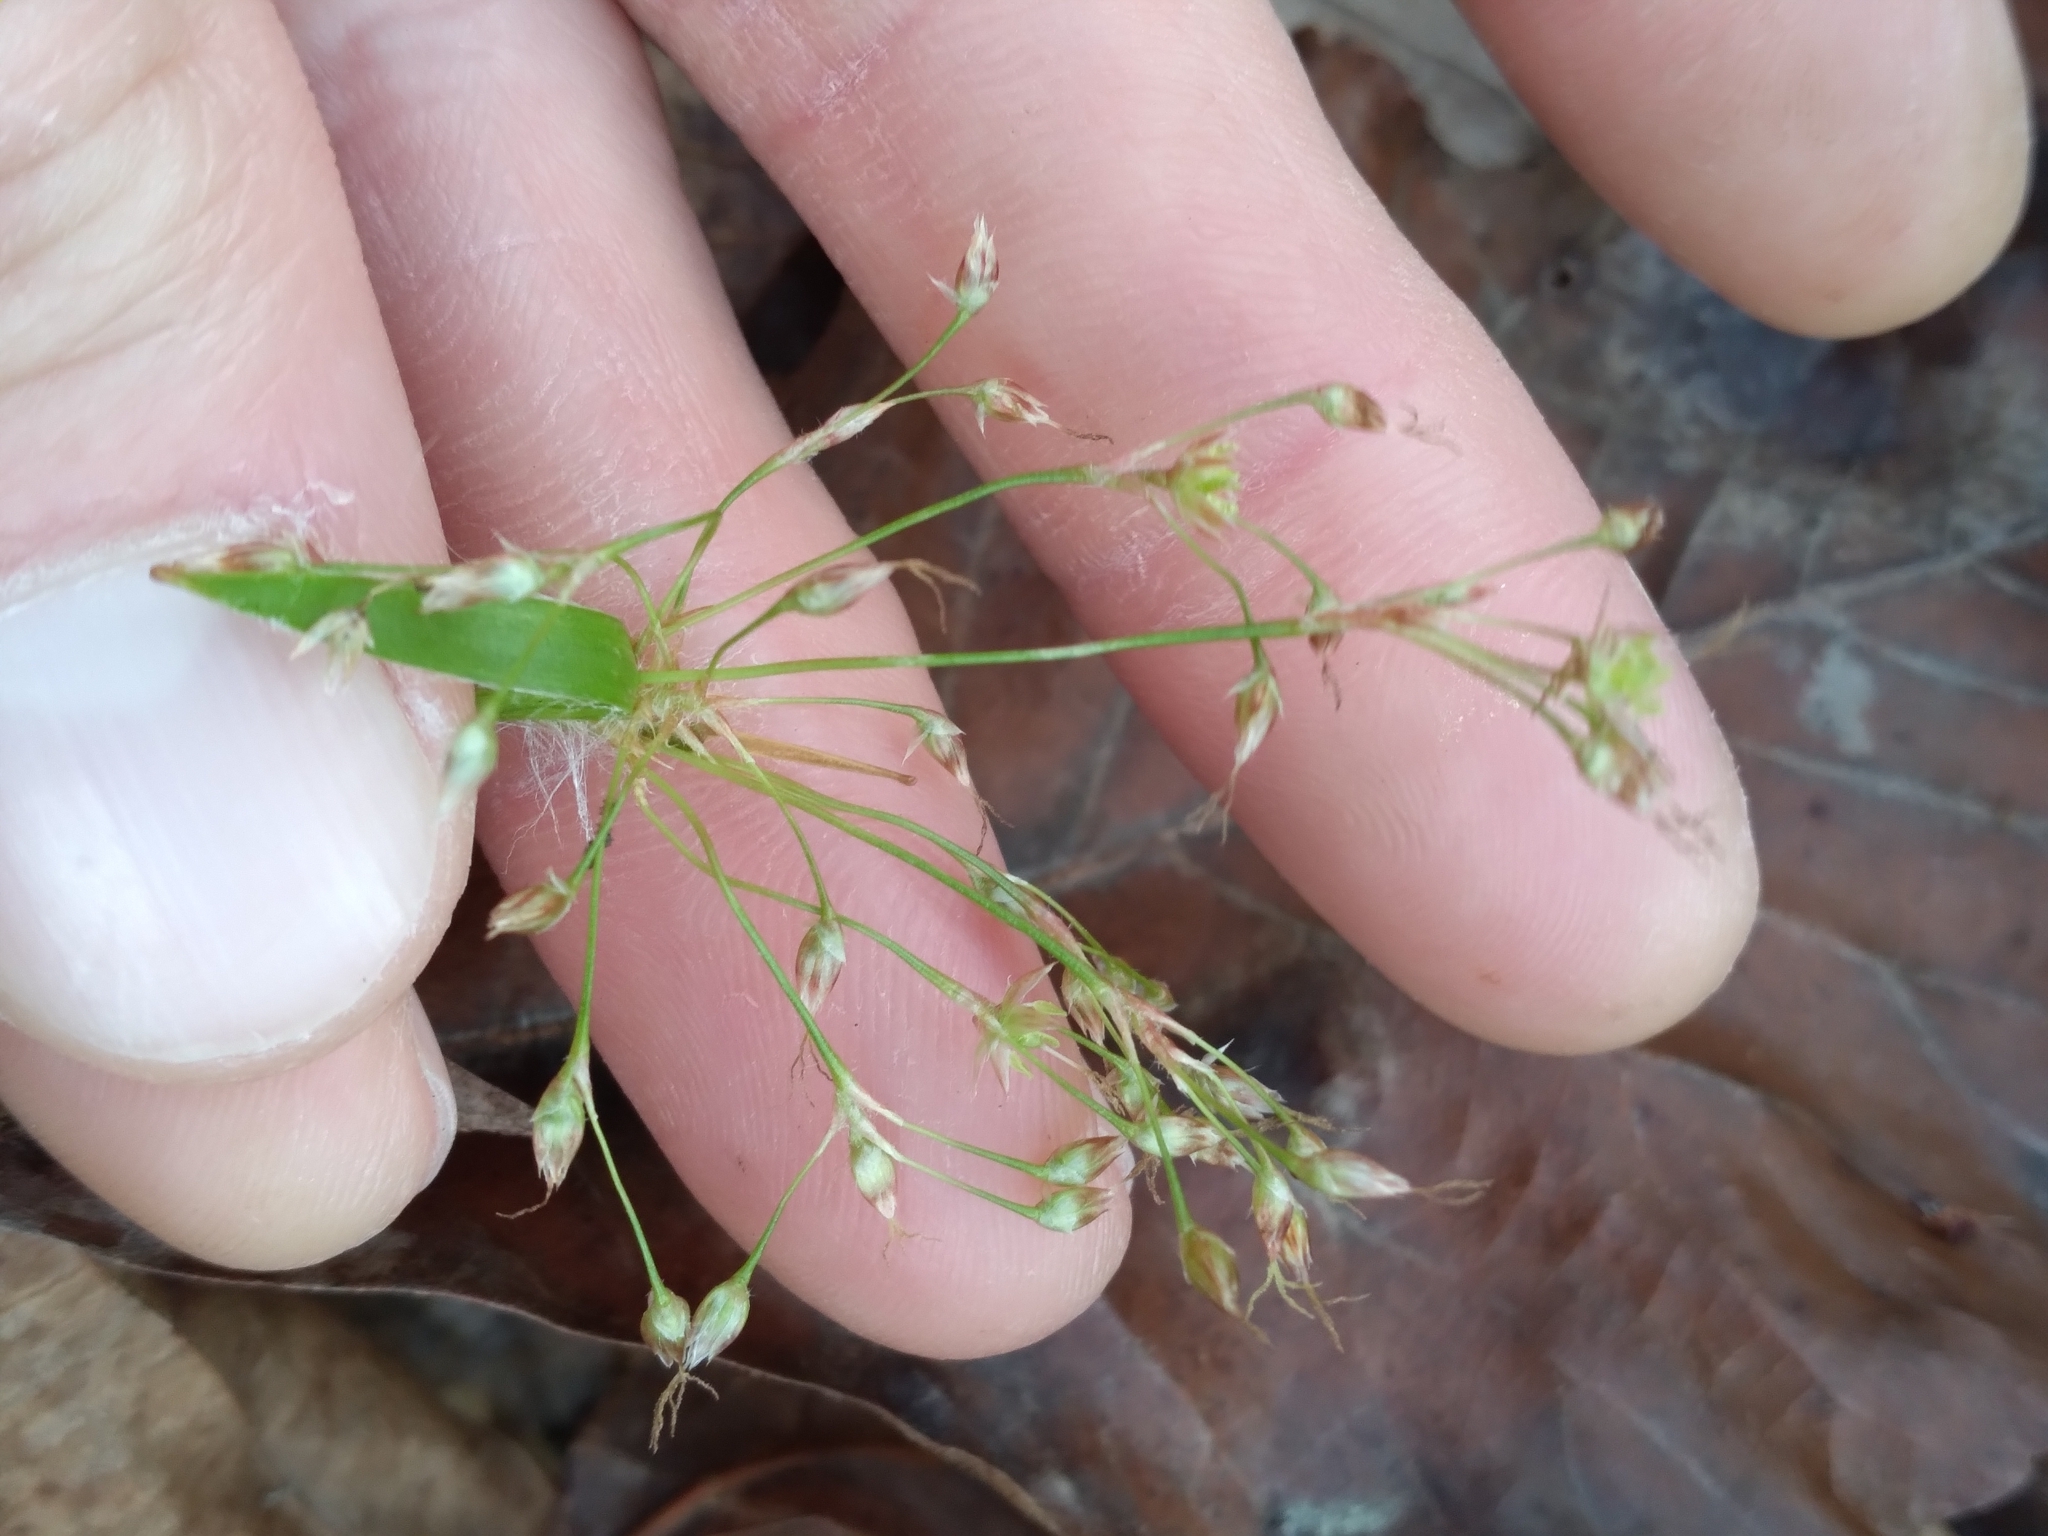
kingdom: Plantae
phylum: Tracheophyta
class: Liliopsida
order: Poales
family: Juncaceae
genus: Luzula
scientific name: Luzula acuminata
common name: Hairy woodrush
